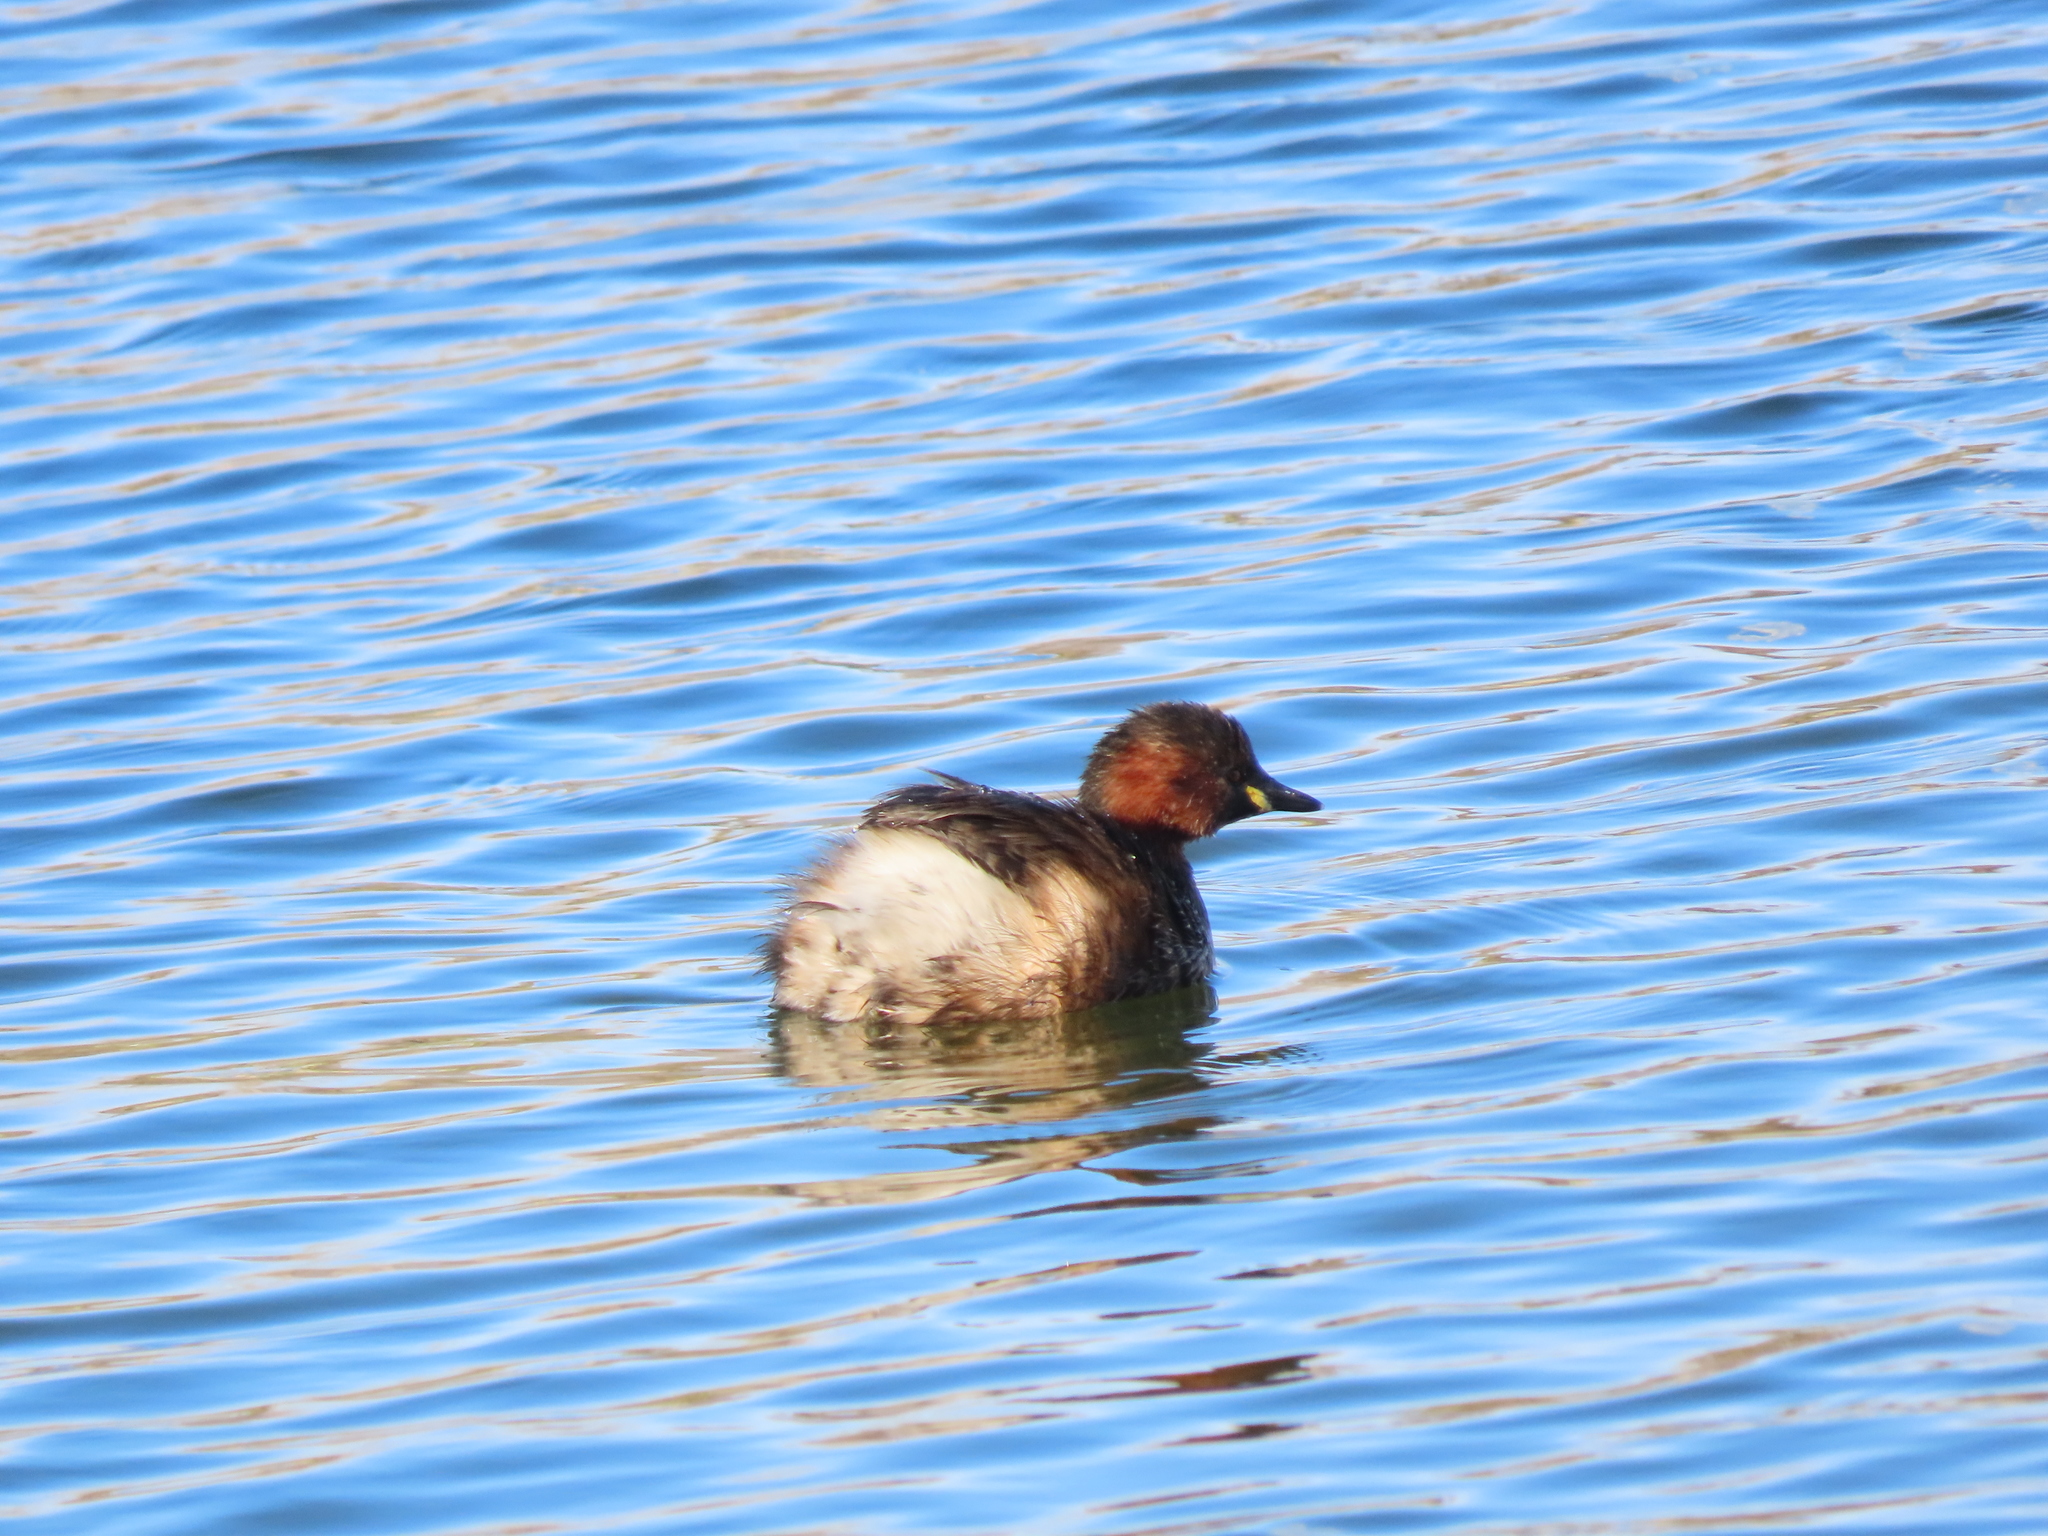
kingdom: Animalia
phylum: Chordata
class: Aves
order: Podicipediformes
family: Podicipedidae
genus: Tachybaptus
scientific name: Tachybaptus ruficollis
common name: Little grebe
